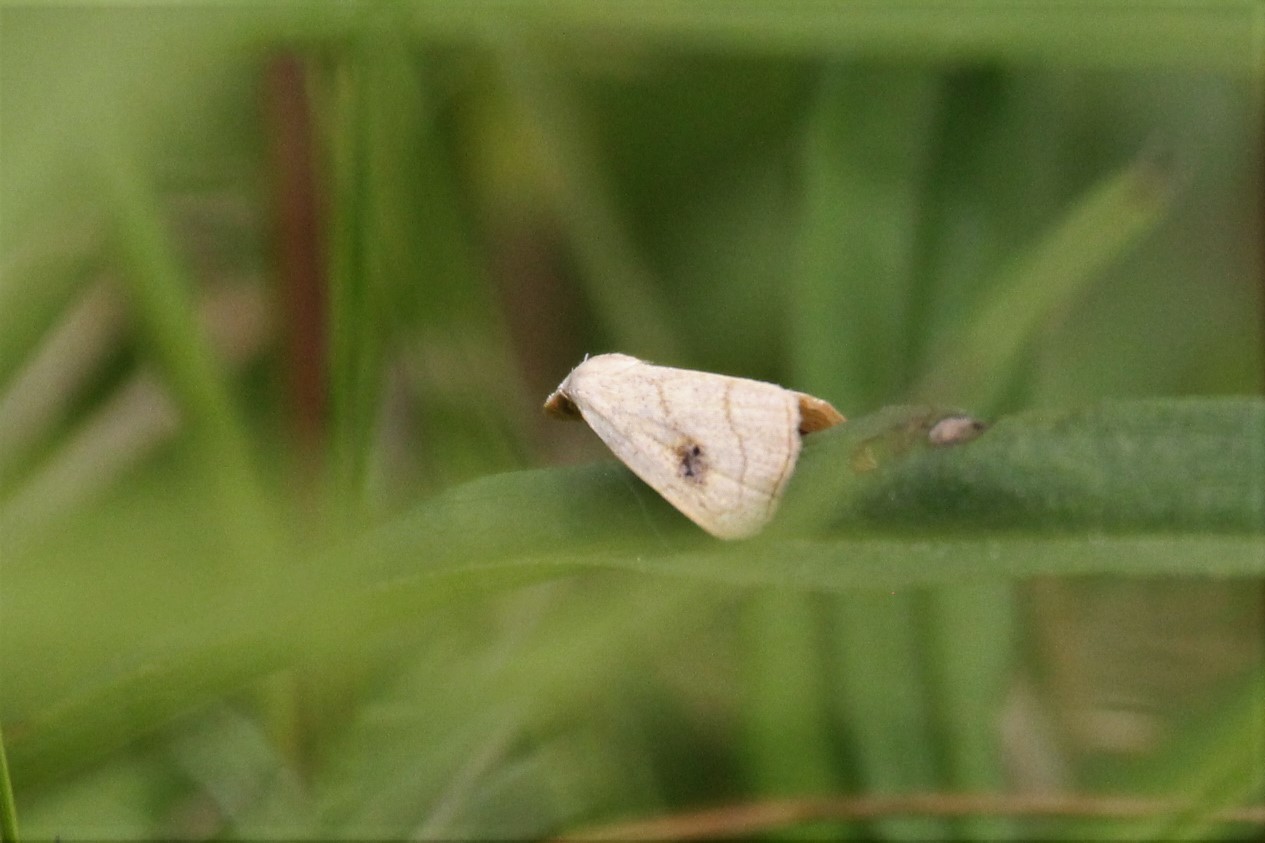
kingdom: Animalia
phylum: Arthropoda
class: Insecta
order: Lepidoptera
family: Erebidae
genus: Rivula
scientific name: Rivula propinqualis
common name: Spotted grass moth
